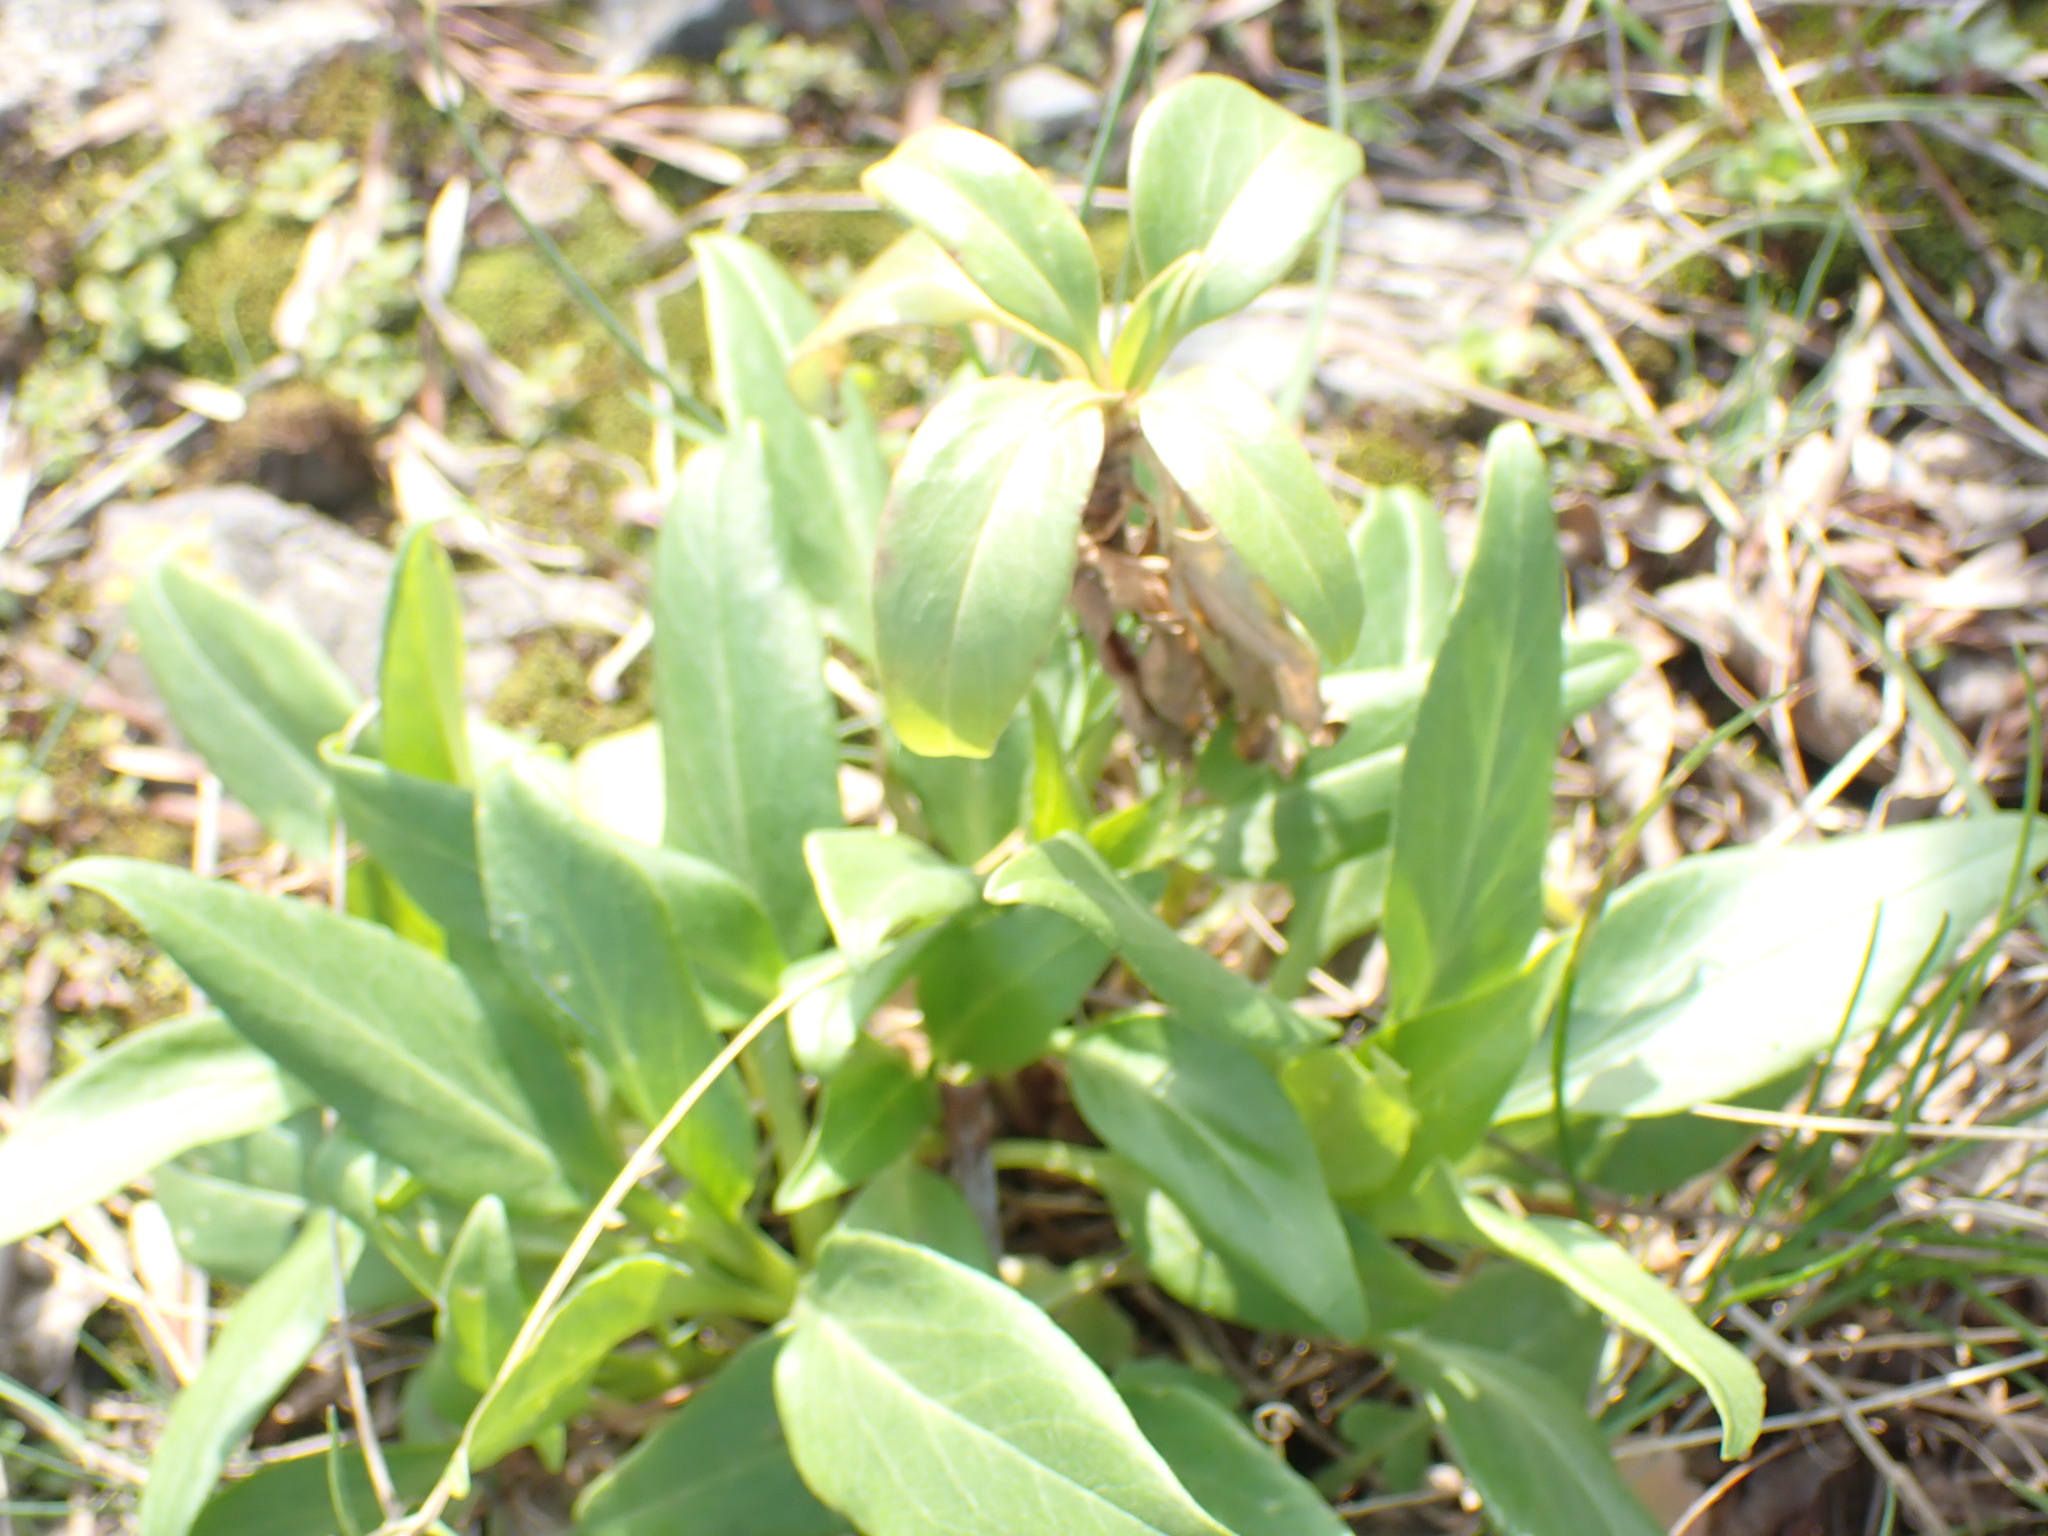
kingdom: Plantae
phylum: Tracheophyta
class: Magnoliopsida
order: Dipsacales
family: Caprifoliaceae
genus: Centranthus
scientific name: Centranthus ruber
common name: Red valerian
